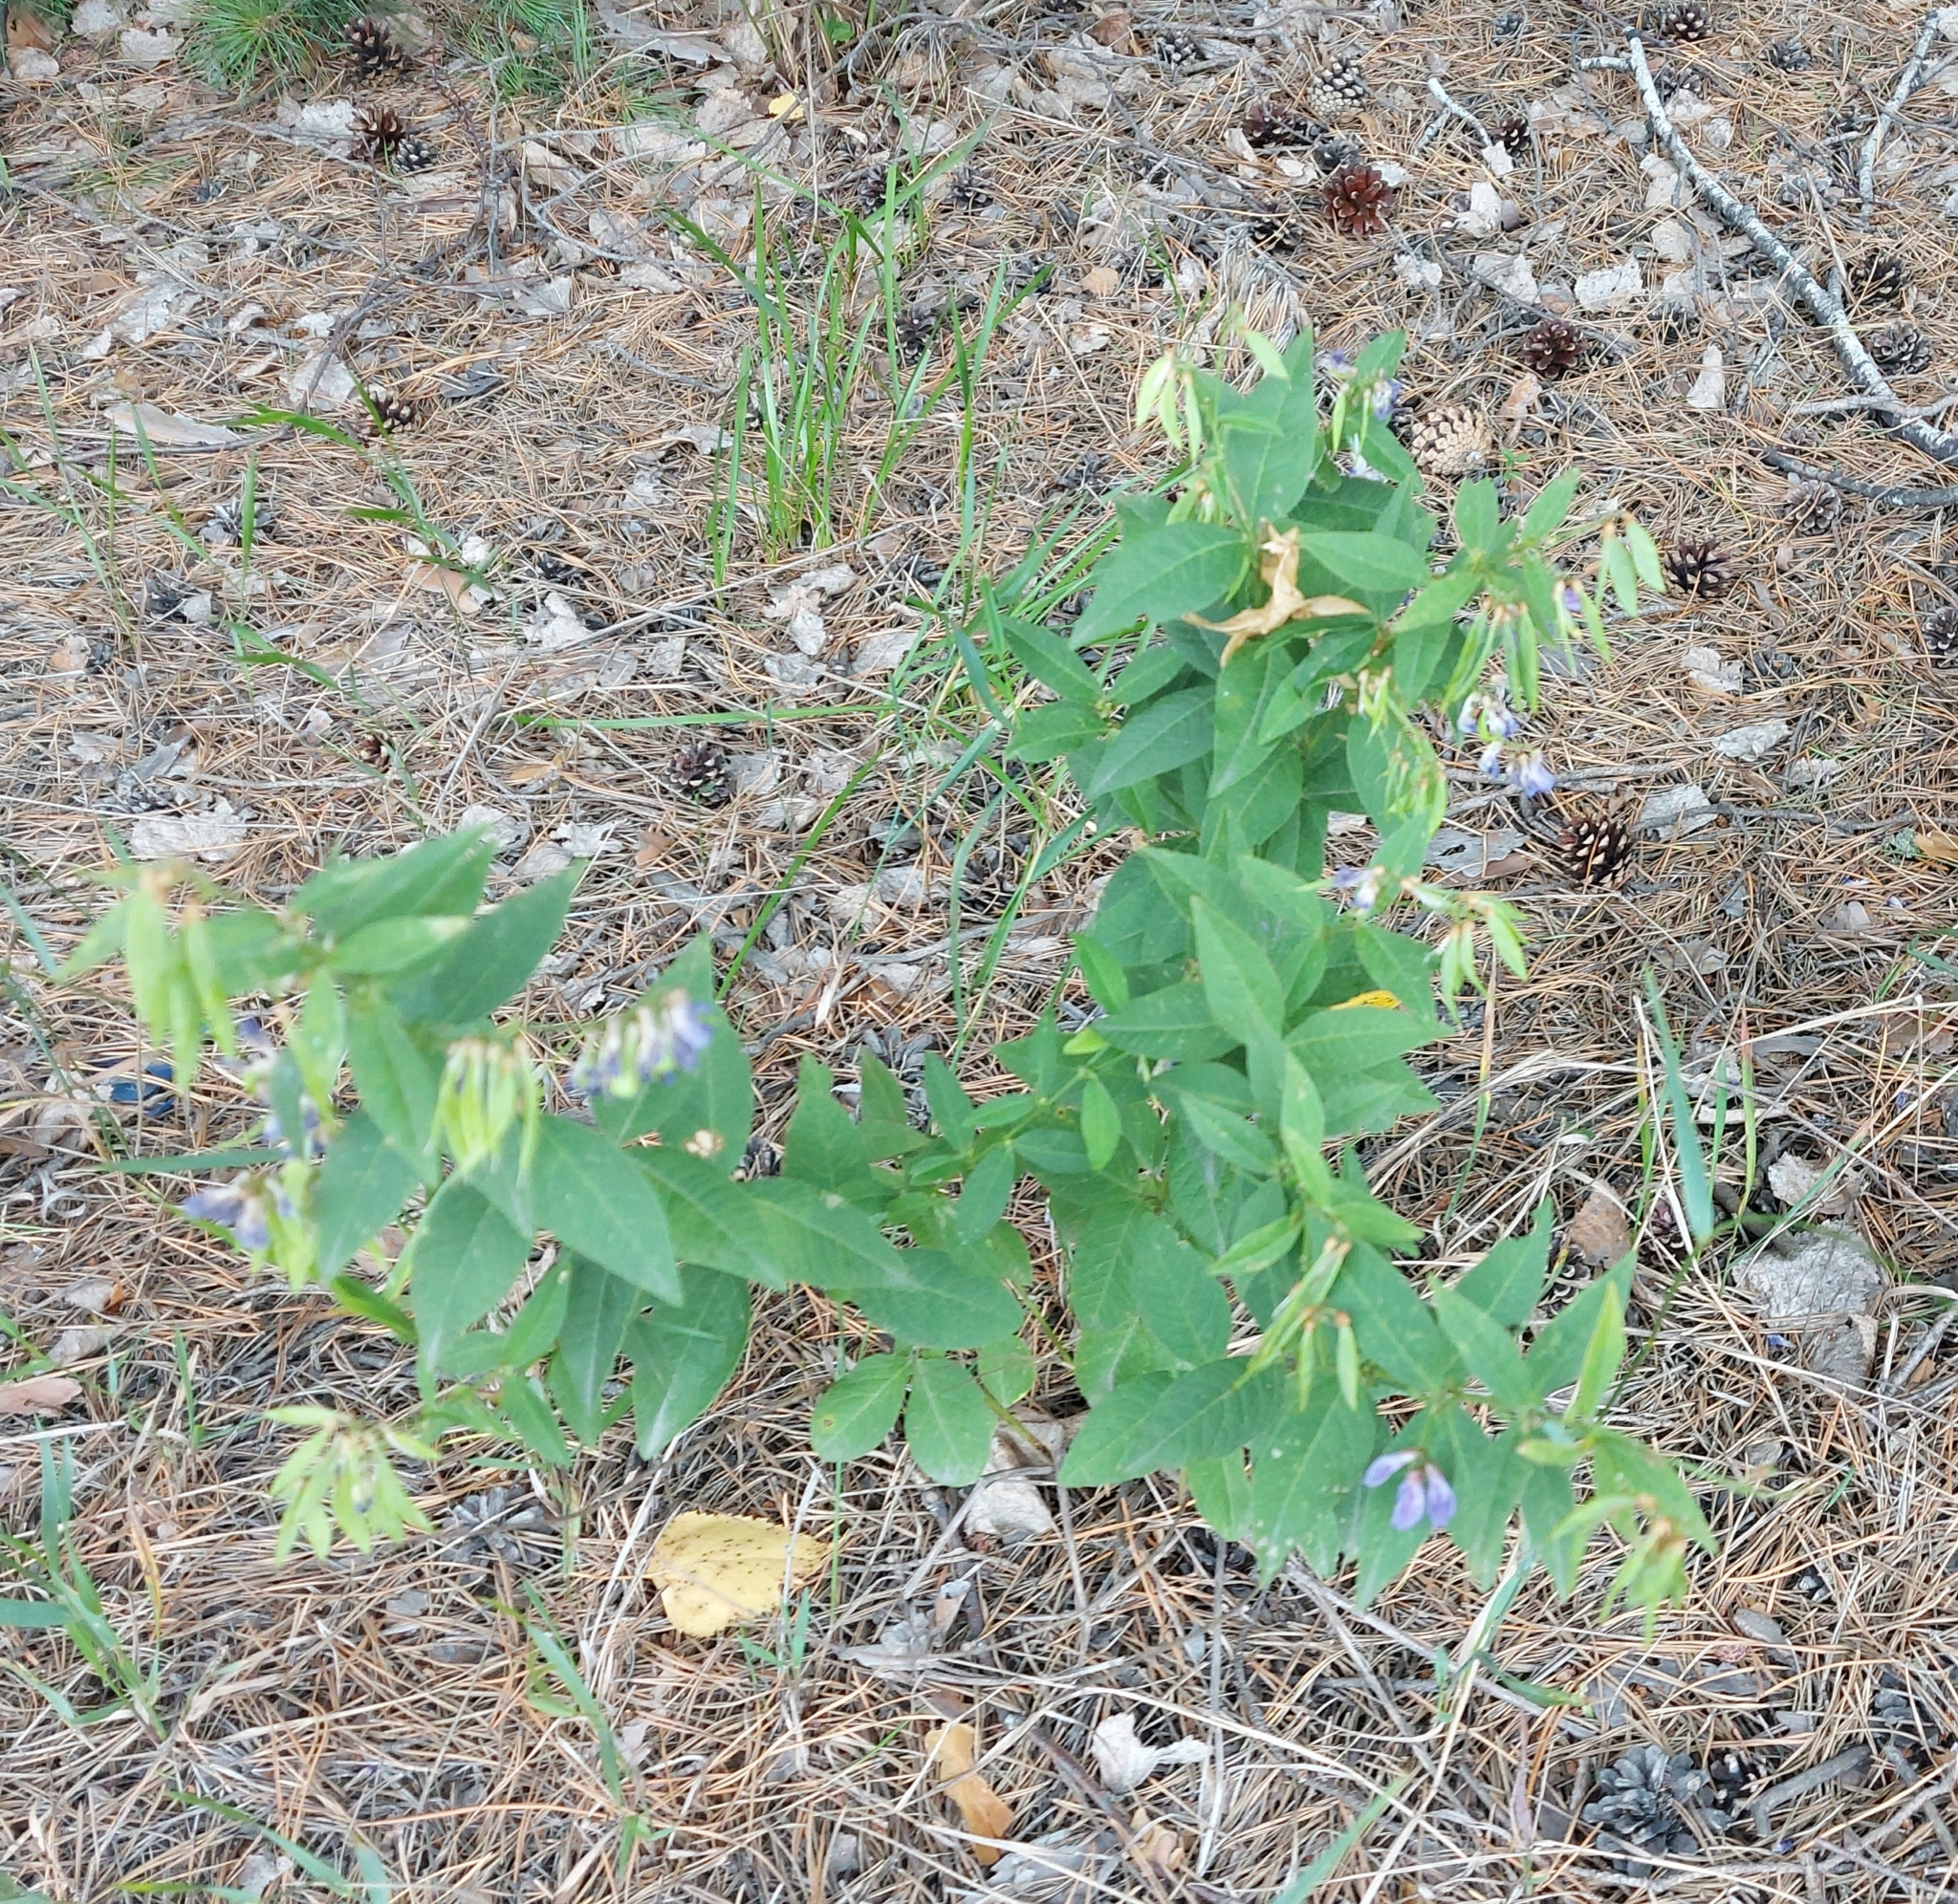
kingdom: Plantae
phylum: Tracheophyta
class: Magnoliopsida
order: Fabales
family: Fabaceae
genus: Vicia
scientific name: Vicia unijuga
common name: Two-leaf vetch
